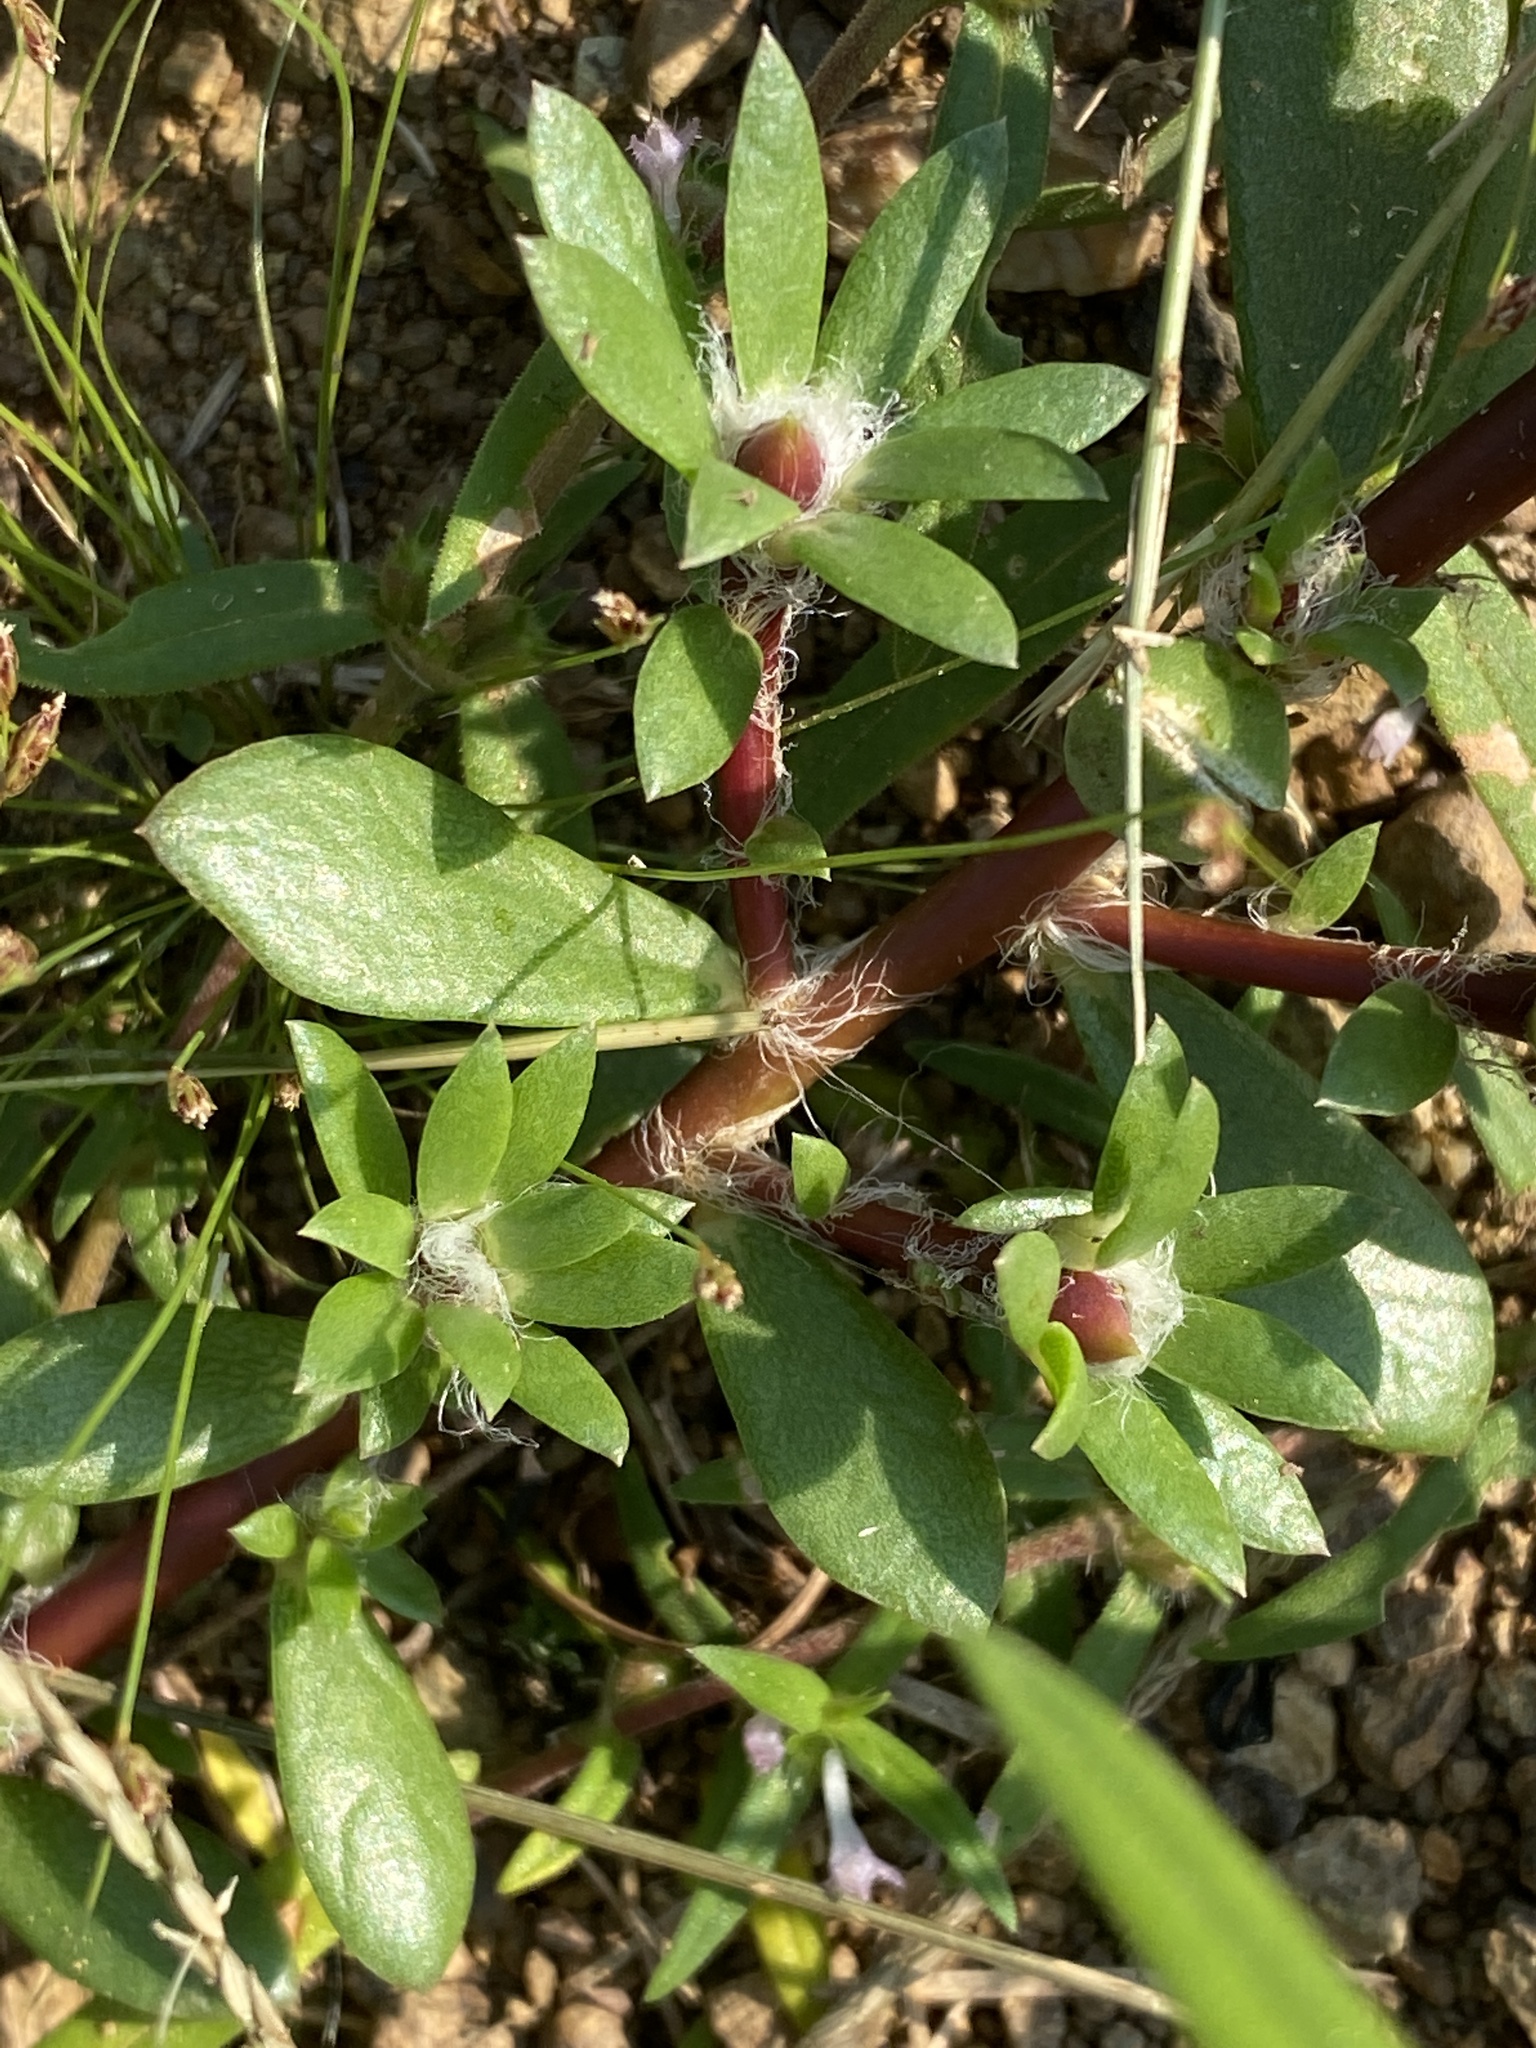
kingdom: Plantae
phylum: Tracheophyta
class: Magnoliopsida
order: Caryophyllales
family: Portulacaceae
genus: Portulaca
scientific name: Portulaca amilis
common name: Paraguayan purslane
